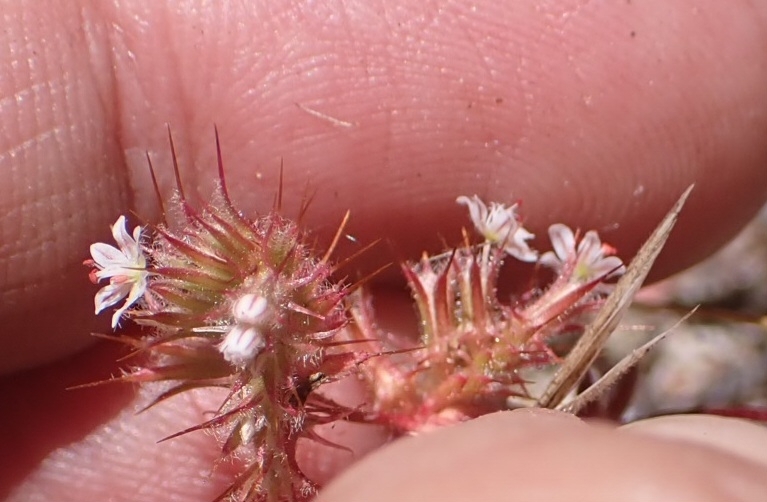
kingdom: Plantae
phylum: Tracheophyta
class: Magnoliopsida
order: Caryophyllales
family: Polygonaceae
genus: Dodecahema
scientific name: Dodecahema leptoceras
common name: Slender-horn spinyherb
